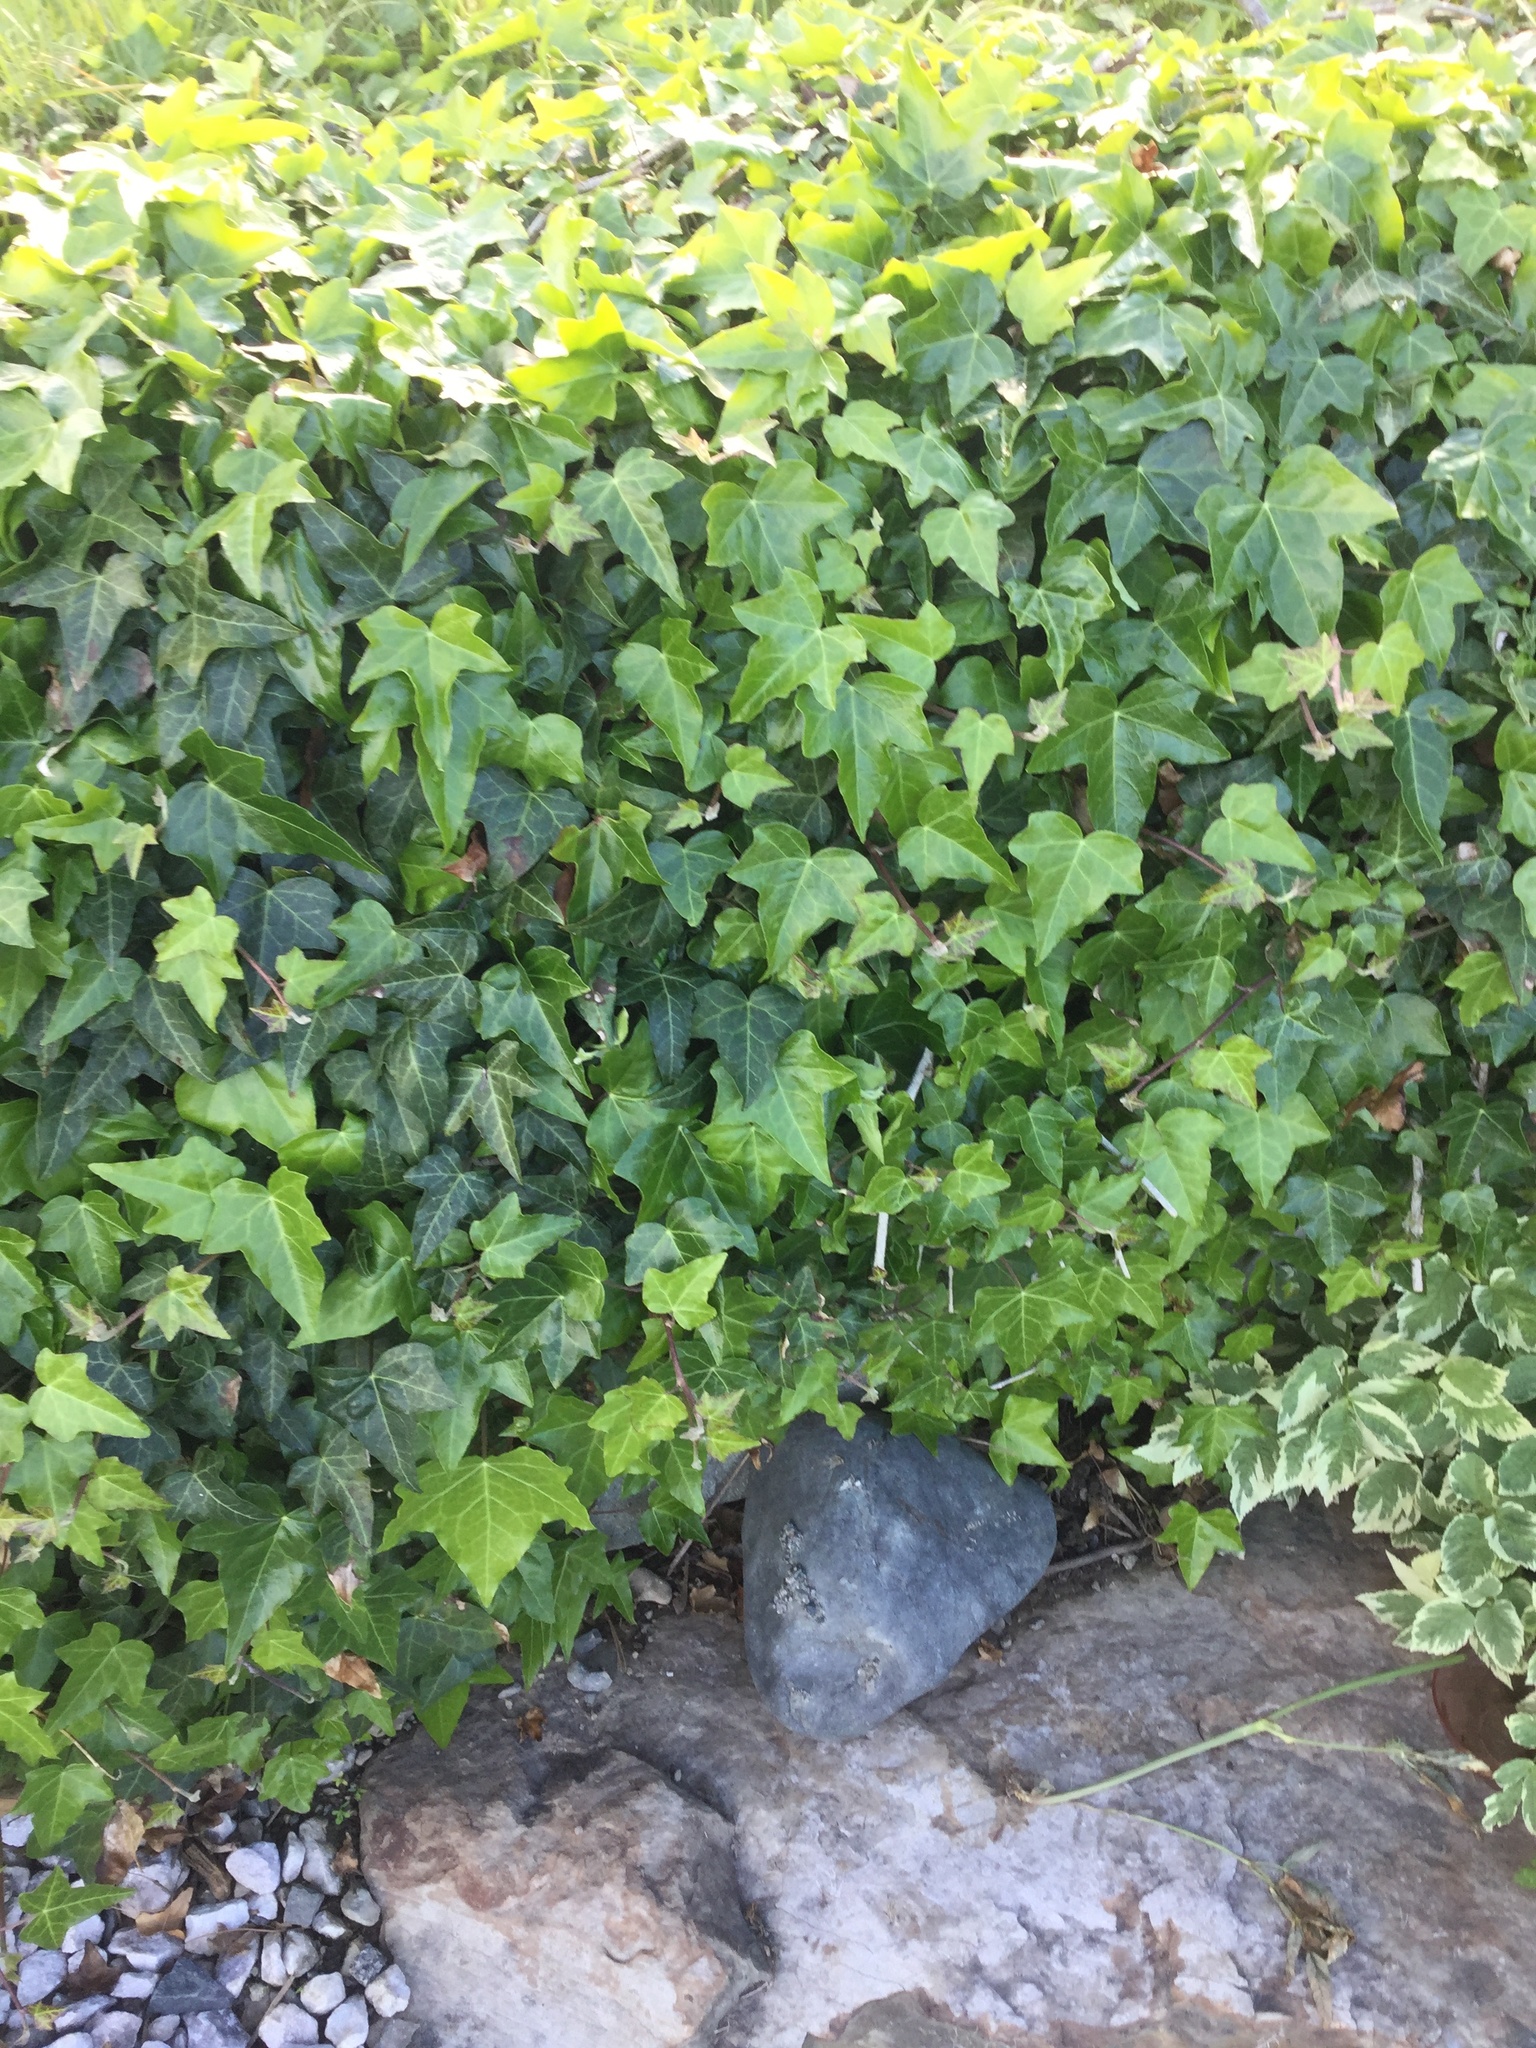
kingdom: Plantae
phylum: Tracheophyta
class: Magnoliopsida
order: Apiales
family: Araliaceae
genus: Hedera
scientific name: Hedera helix
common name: Ivy
